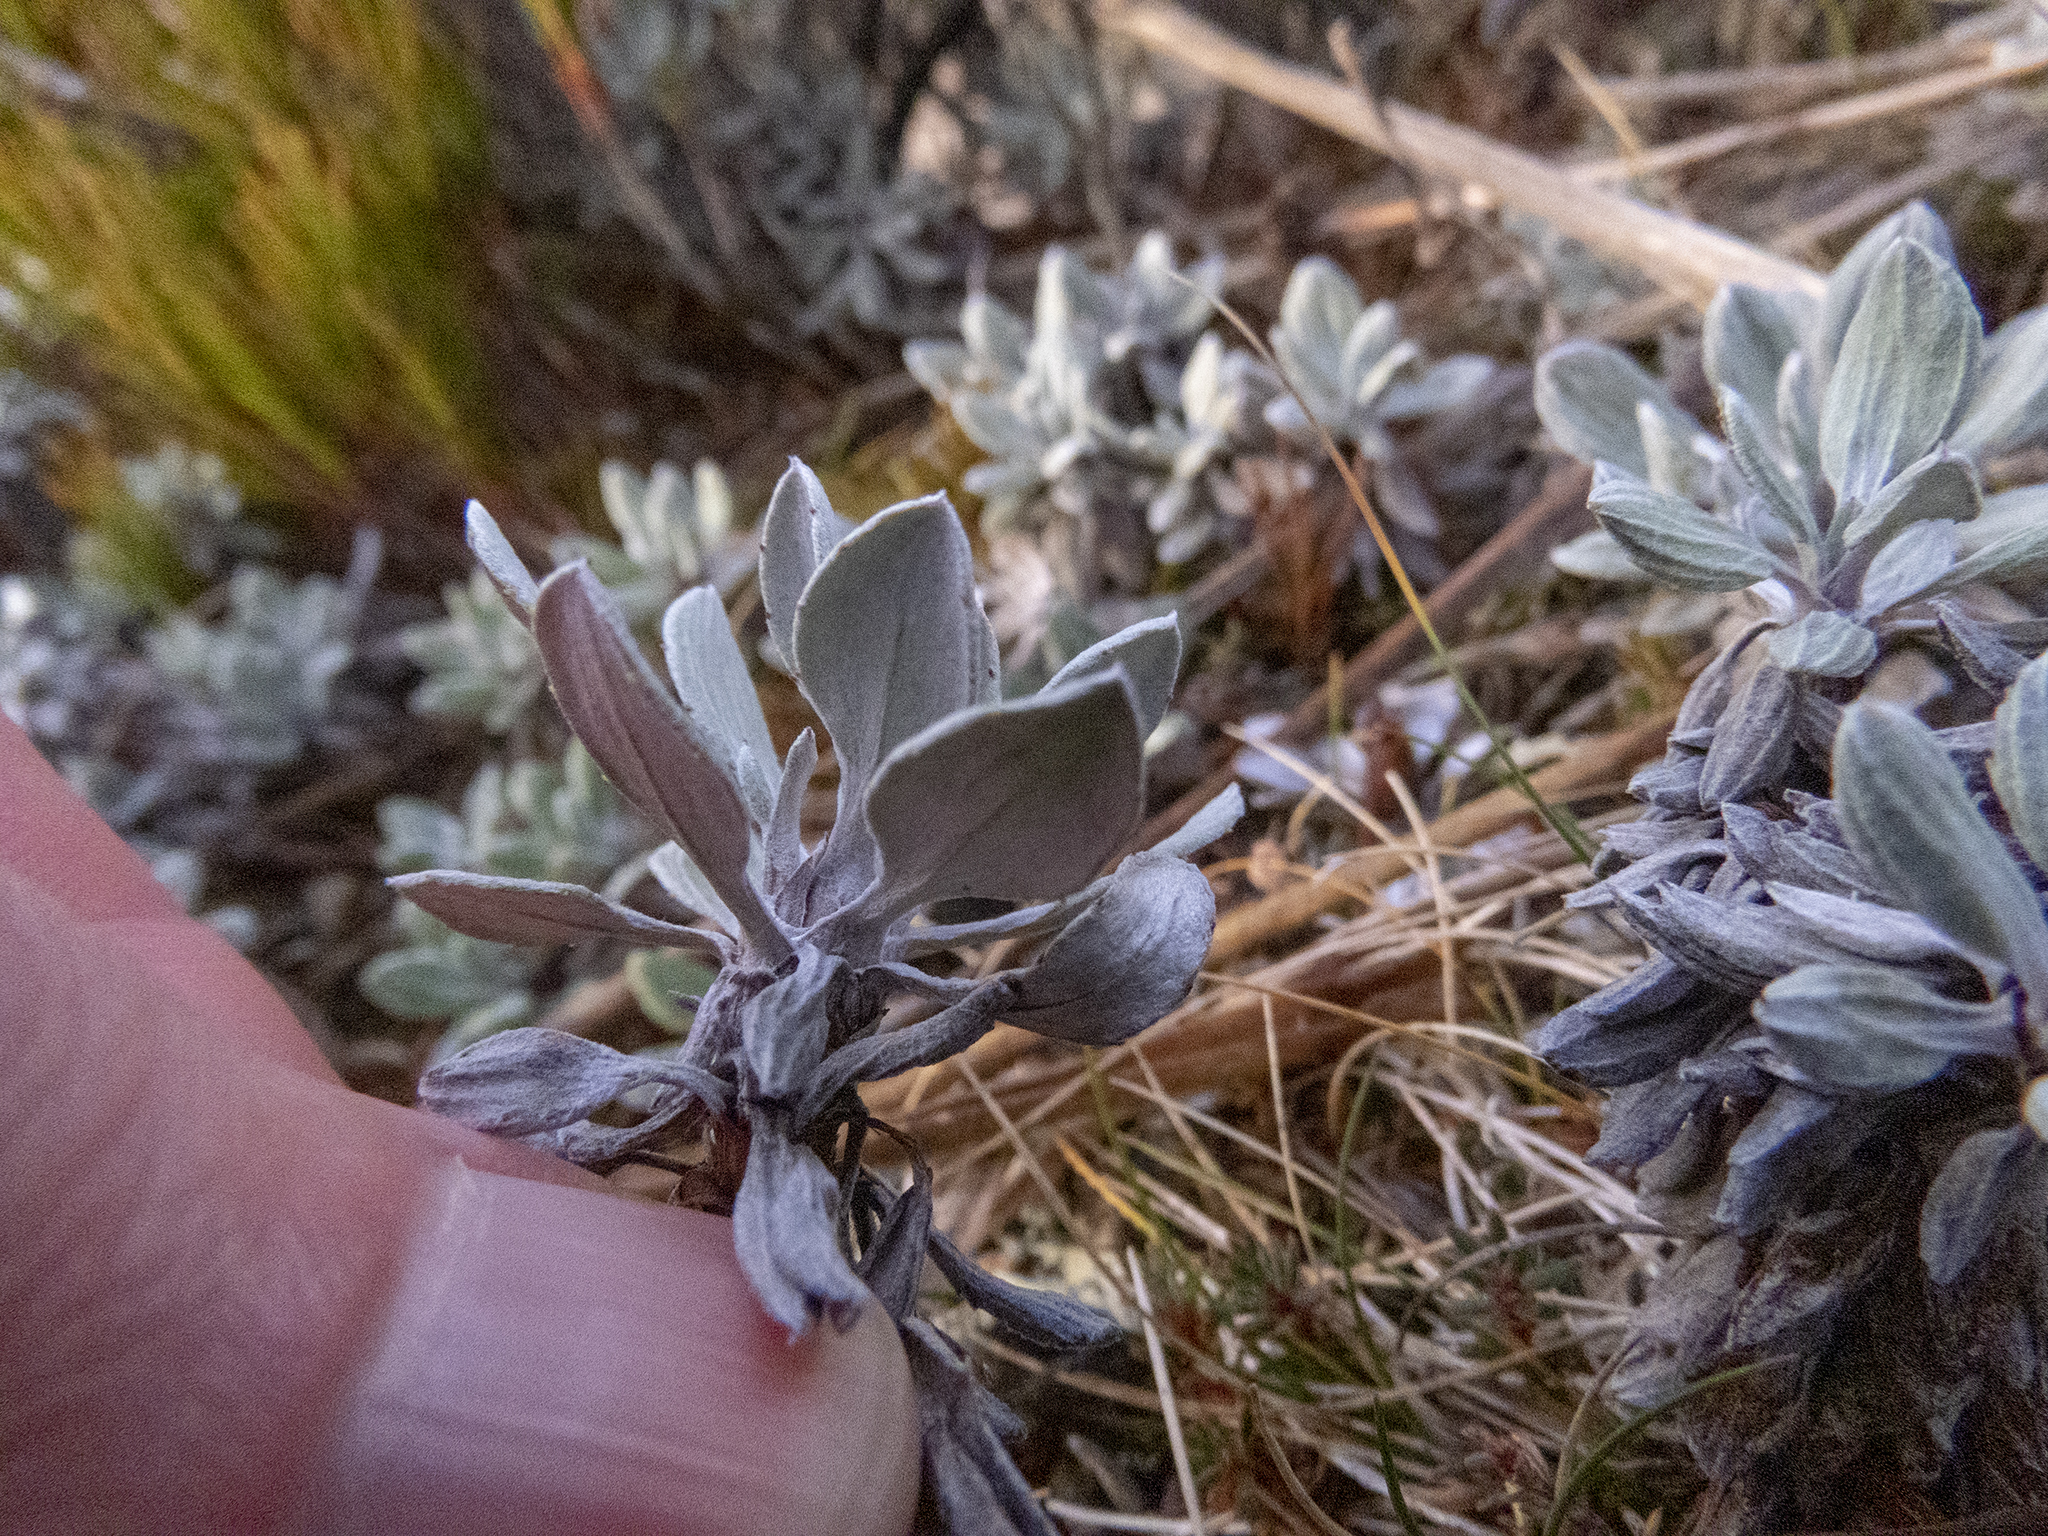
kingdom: Plantae
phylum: Tracheophyta
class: Magnoliopsida
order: Asterales
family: Asteraceae
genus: Celmisia
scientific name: Celmisia discolor
